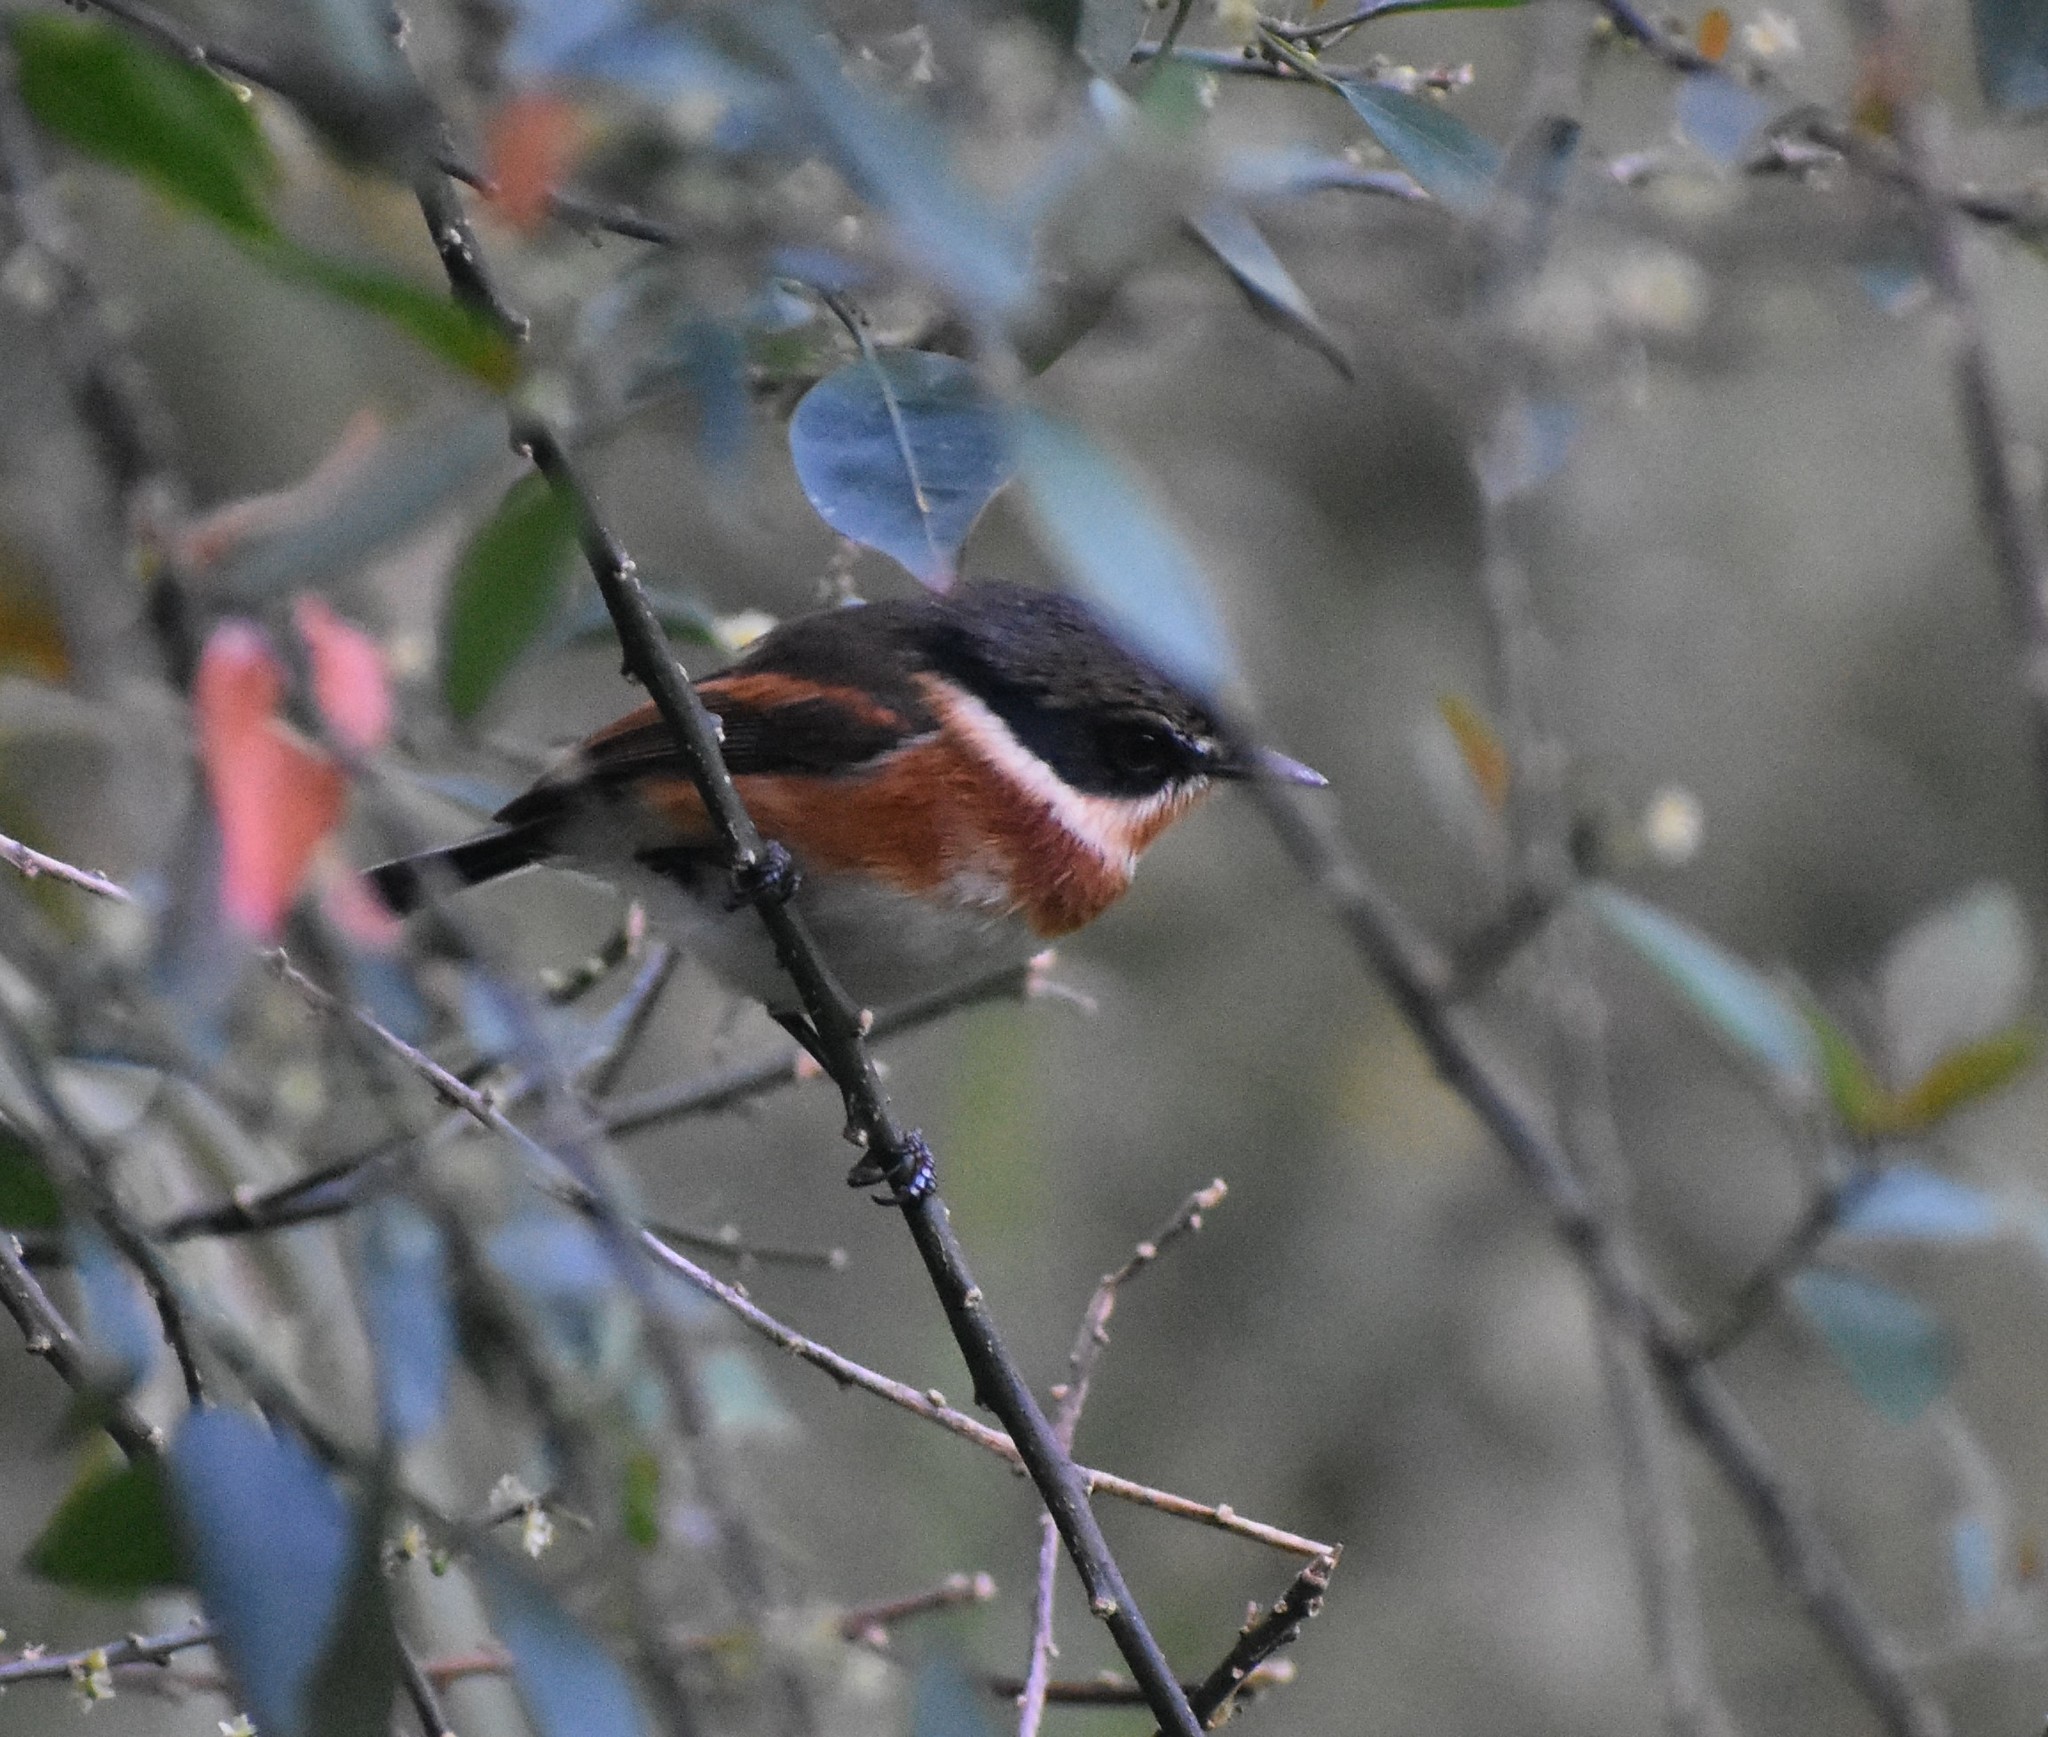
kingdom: Animalia
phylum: Chordata
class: Aves
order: Passeriformes
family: Platysteiridae
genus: Batis
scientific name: Batis capensis
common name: Cape batis
